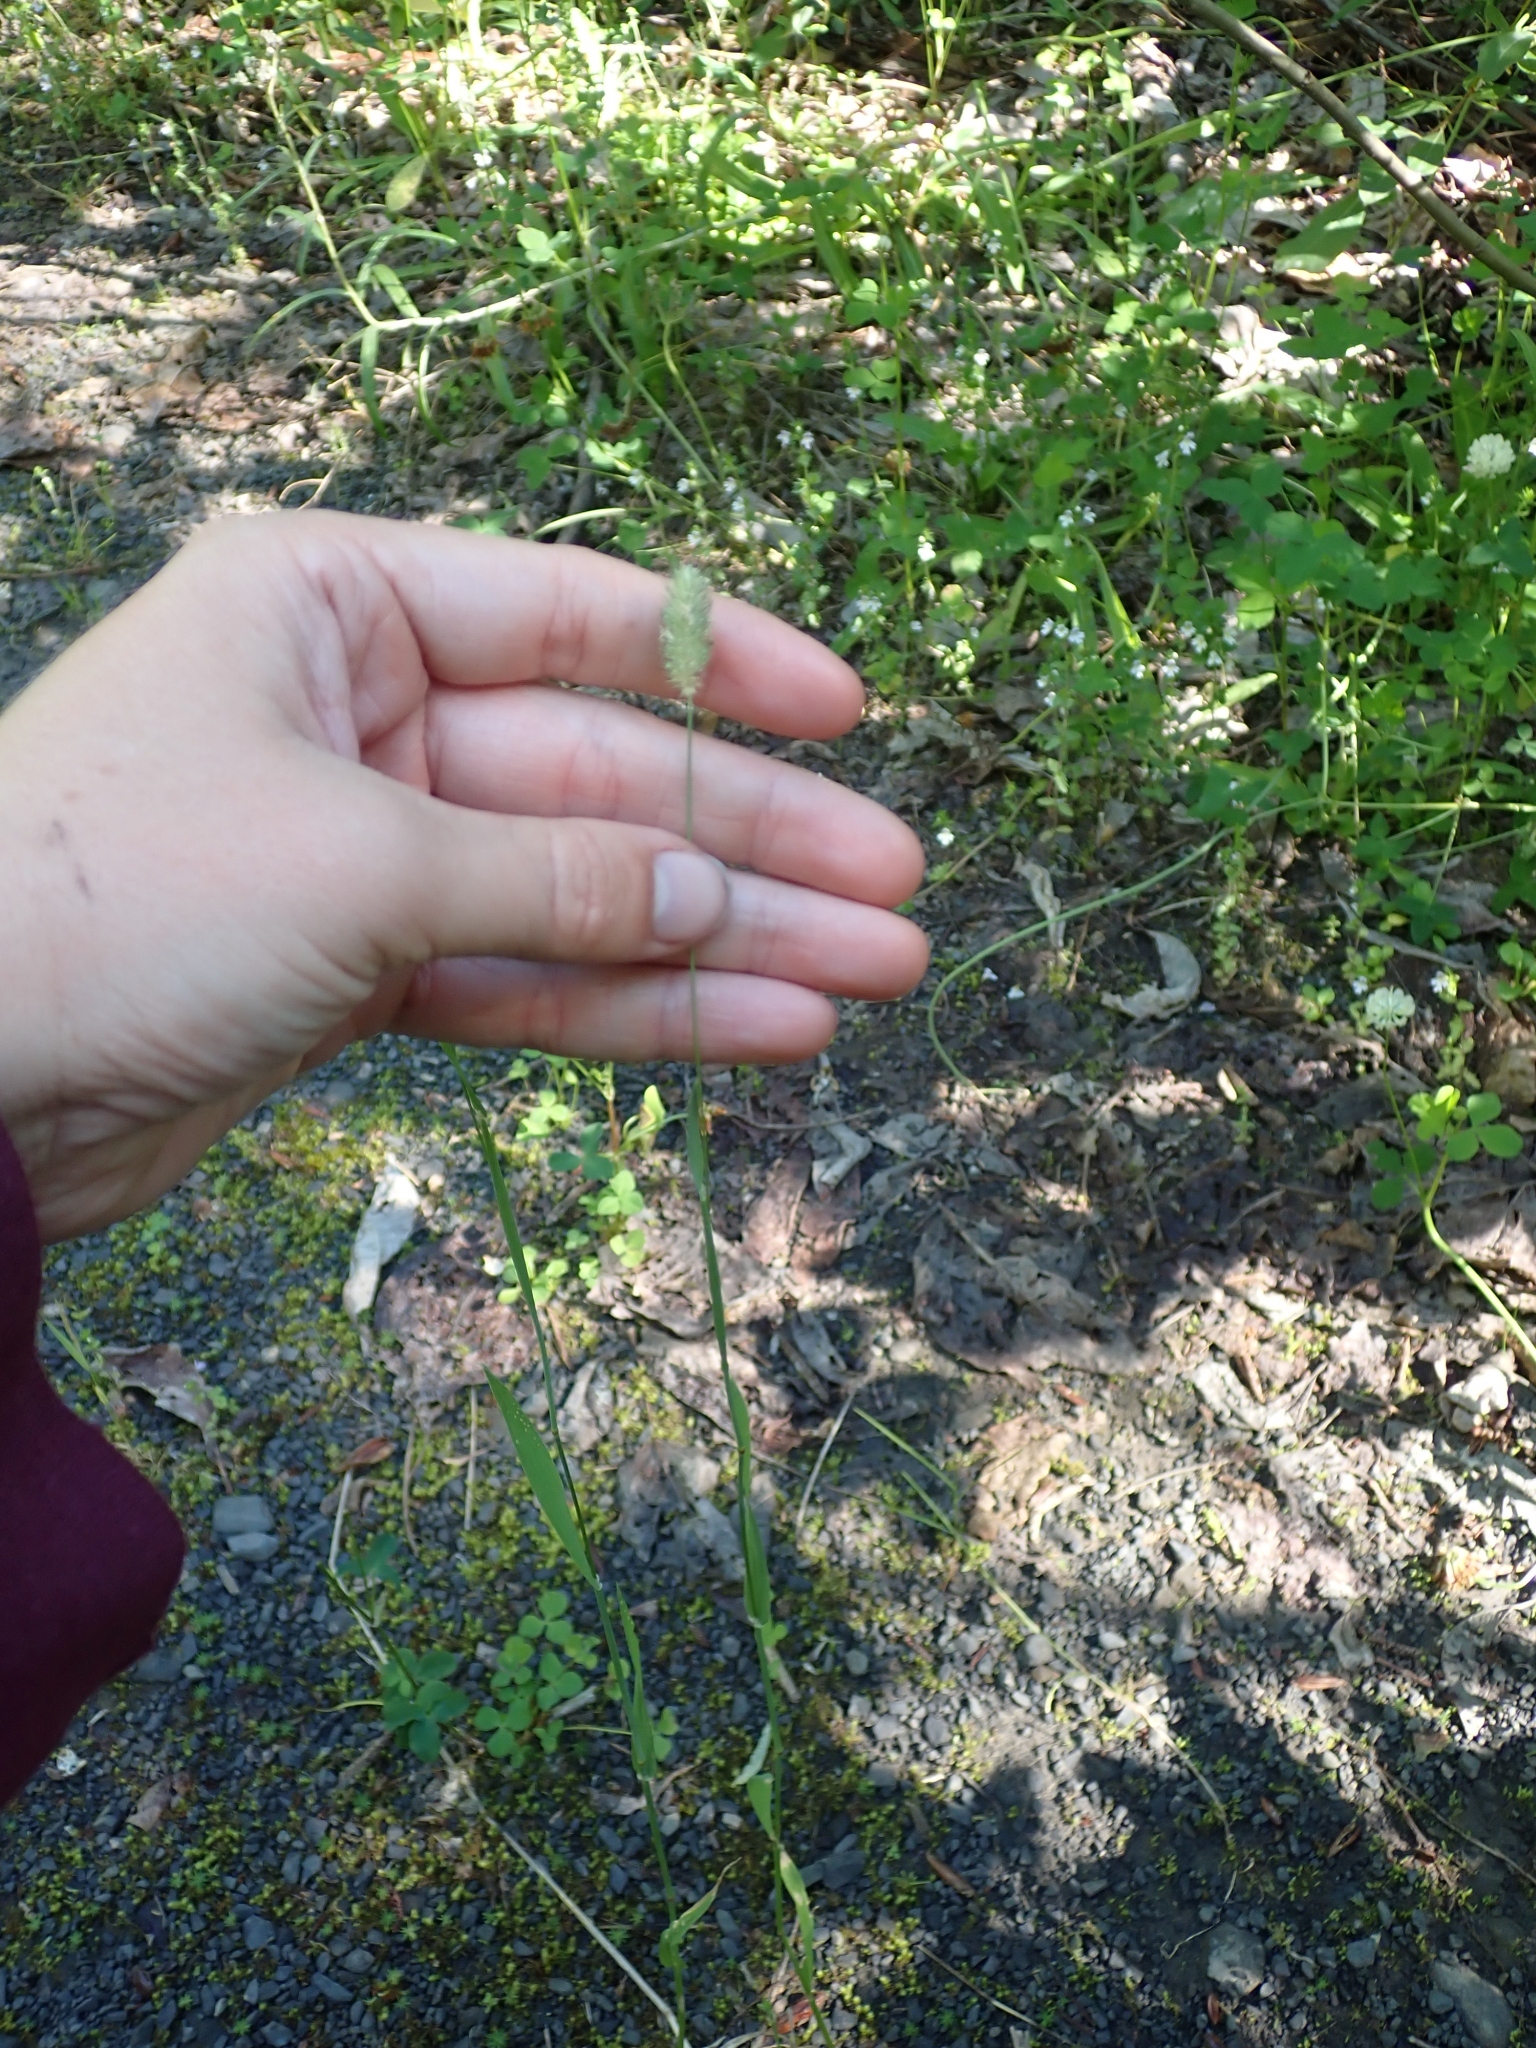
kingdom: Plantae
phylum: Tracheophyta
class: Liliopsida
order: Poales
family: Poaceae
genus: Phleum
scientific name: Phleum alpinum
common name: Alpine cat's-tail
